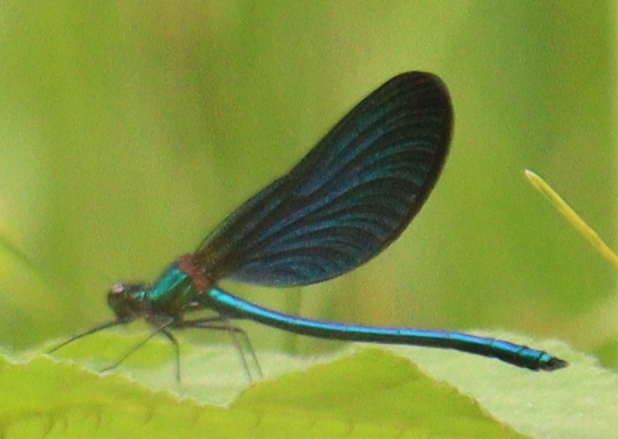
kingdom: Animalia
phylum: Arthropoda
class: Insecta
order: Odonata
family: Calopterygidae
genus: Calopteryx
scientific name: Calopteryx virgo
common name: Beautiful demoiselle
